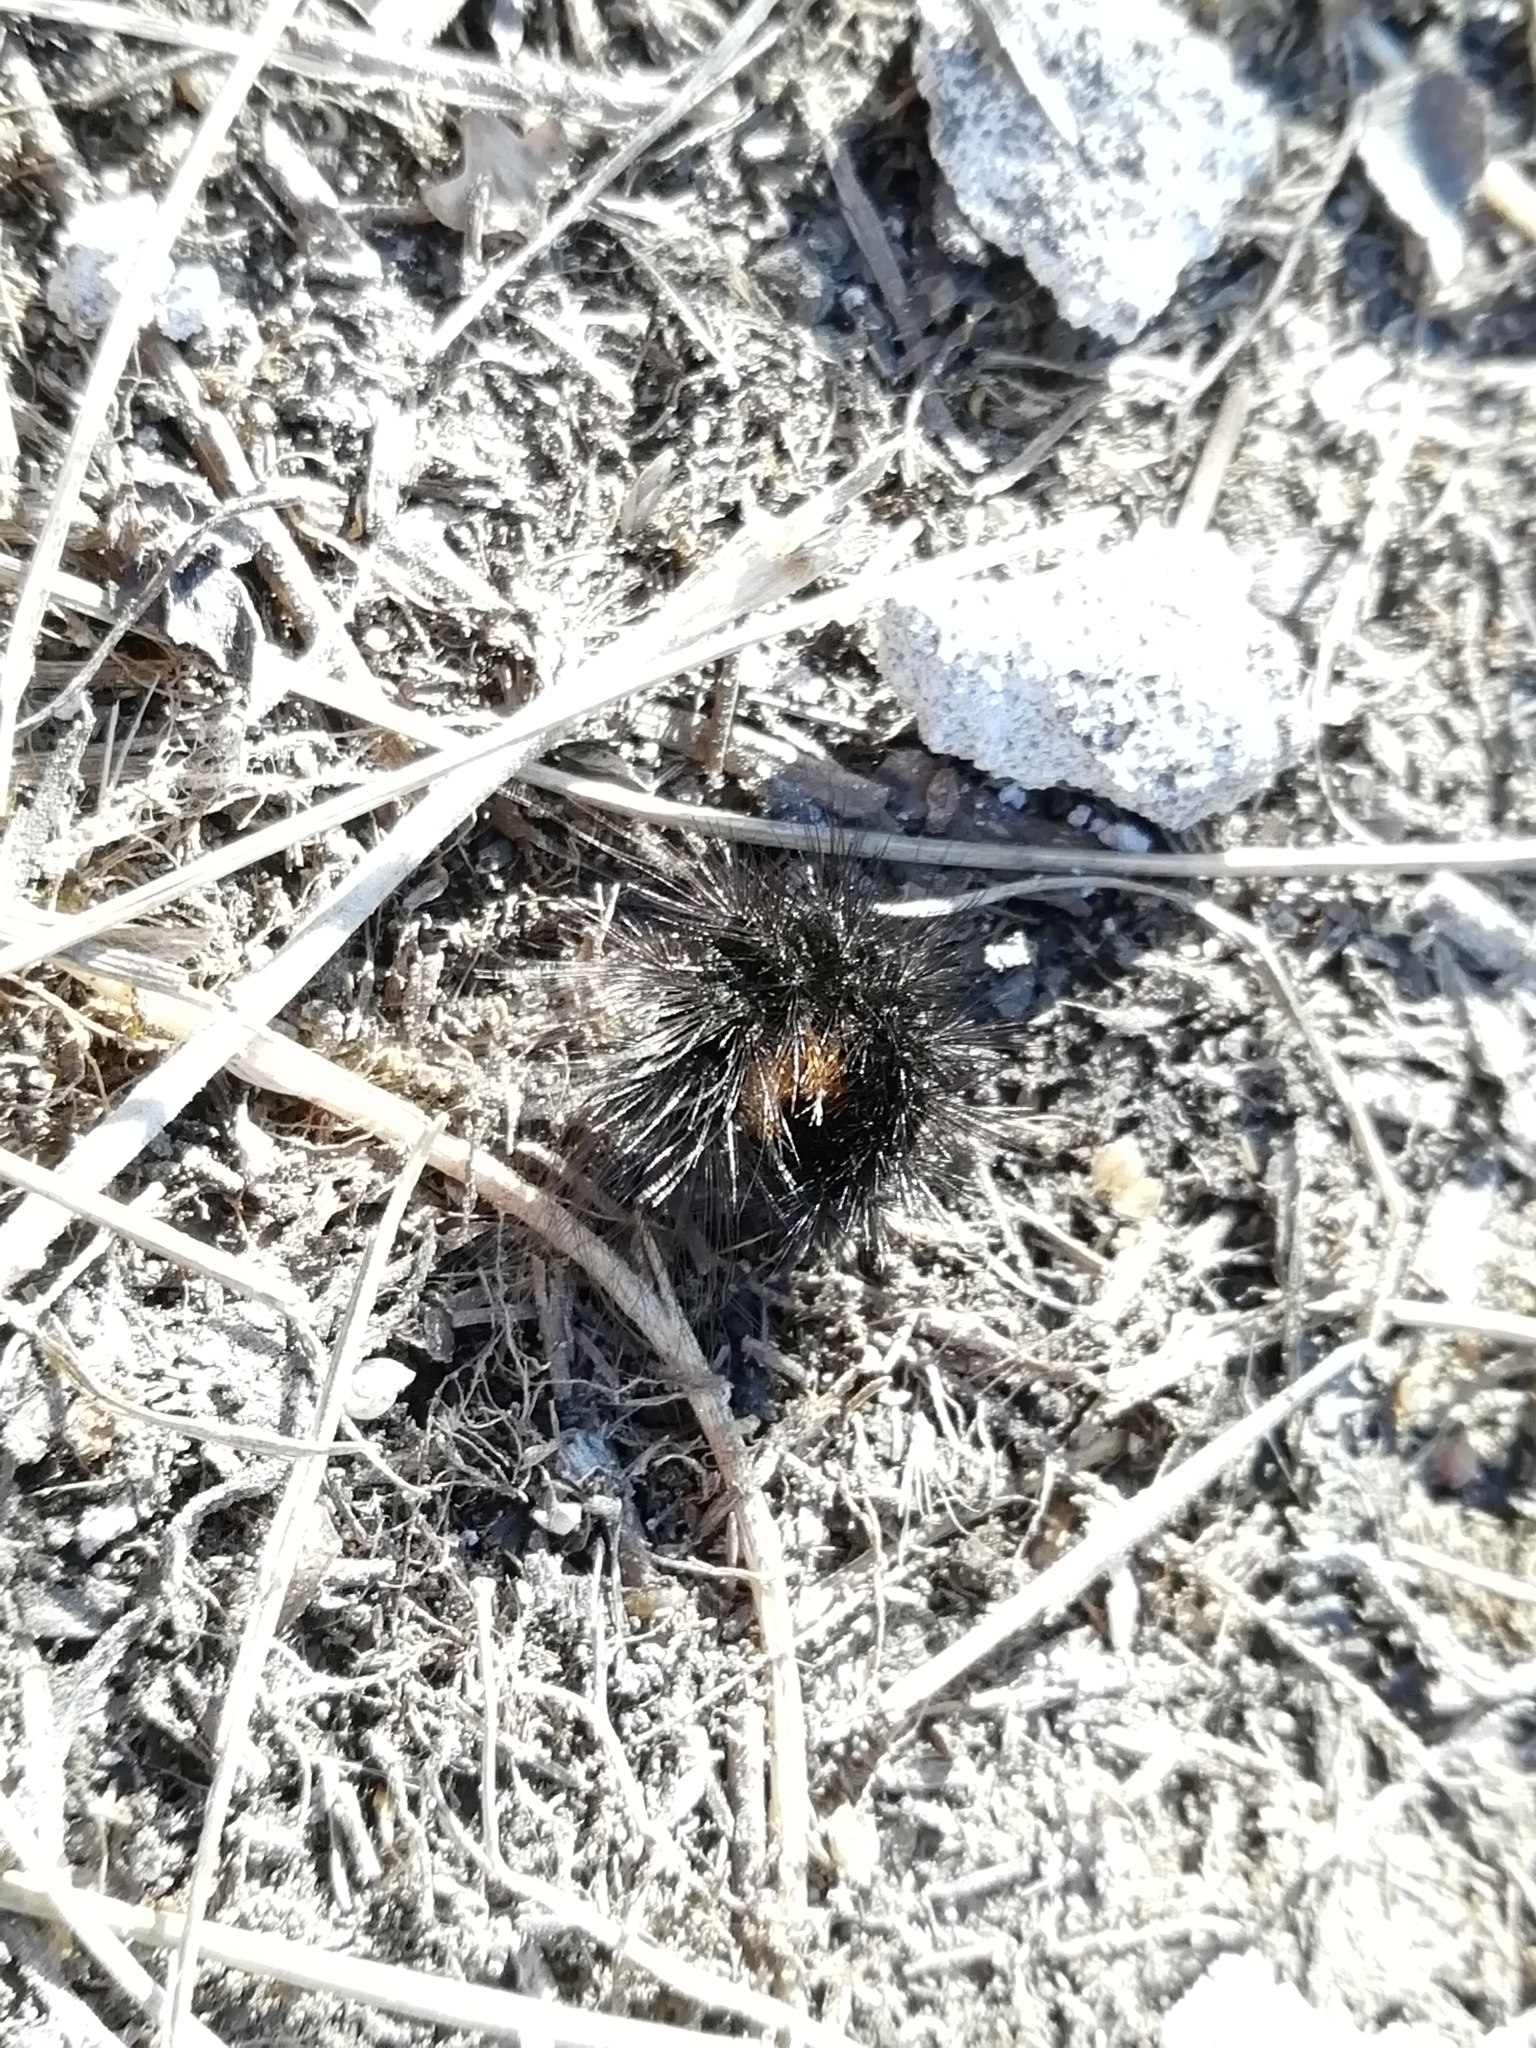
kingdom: Animalia
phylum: Arthropoda
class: Insecta
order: Lepidoptera
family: Erebidae
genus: Hyphoraia
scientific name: Hyphoraia aulica
